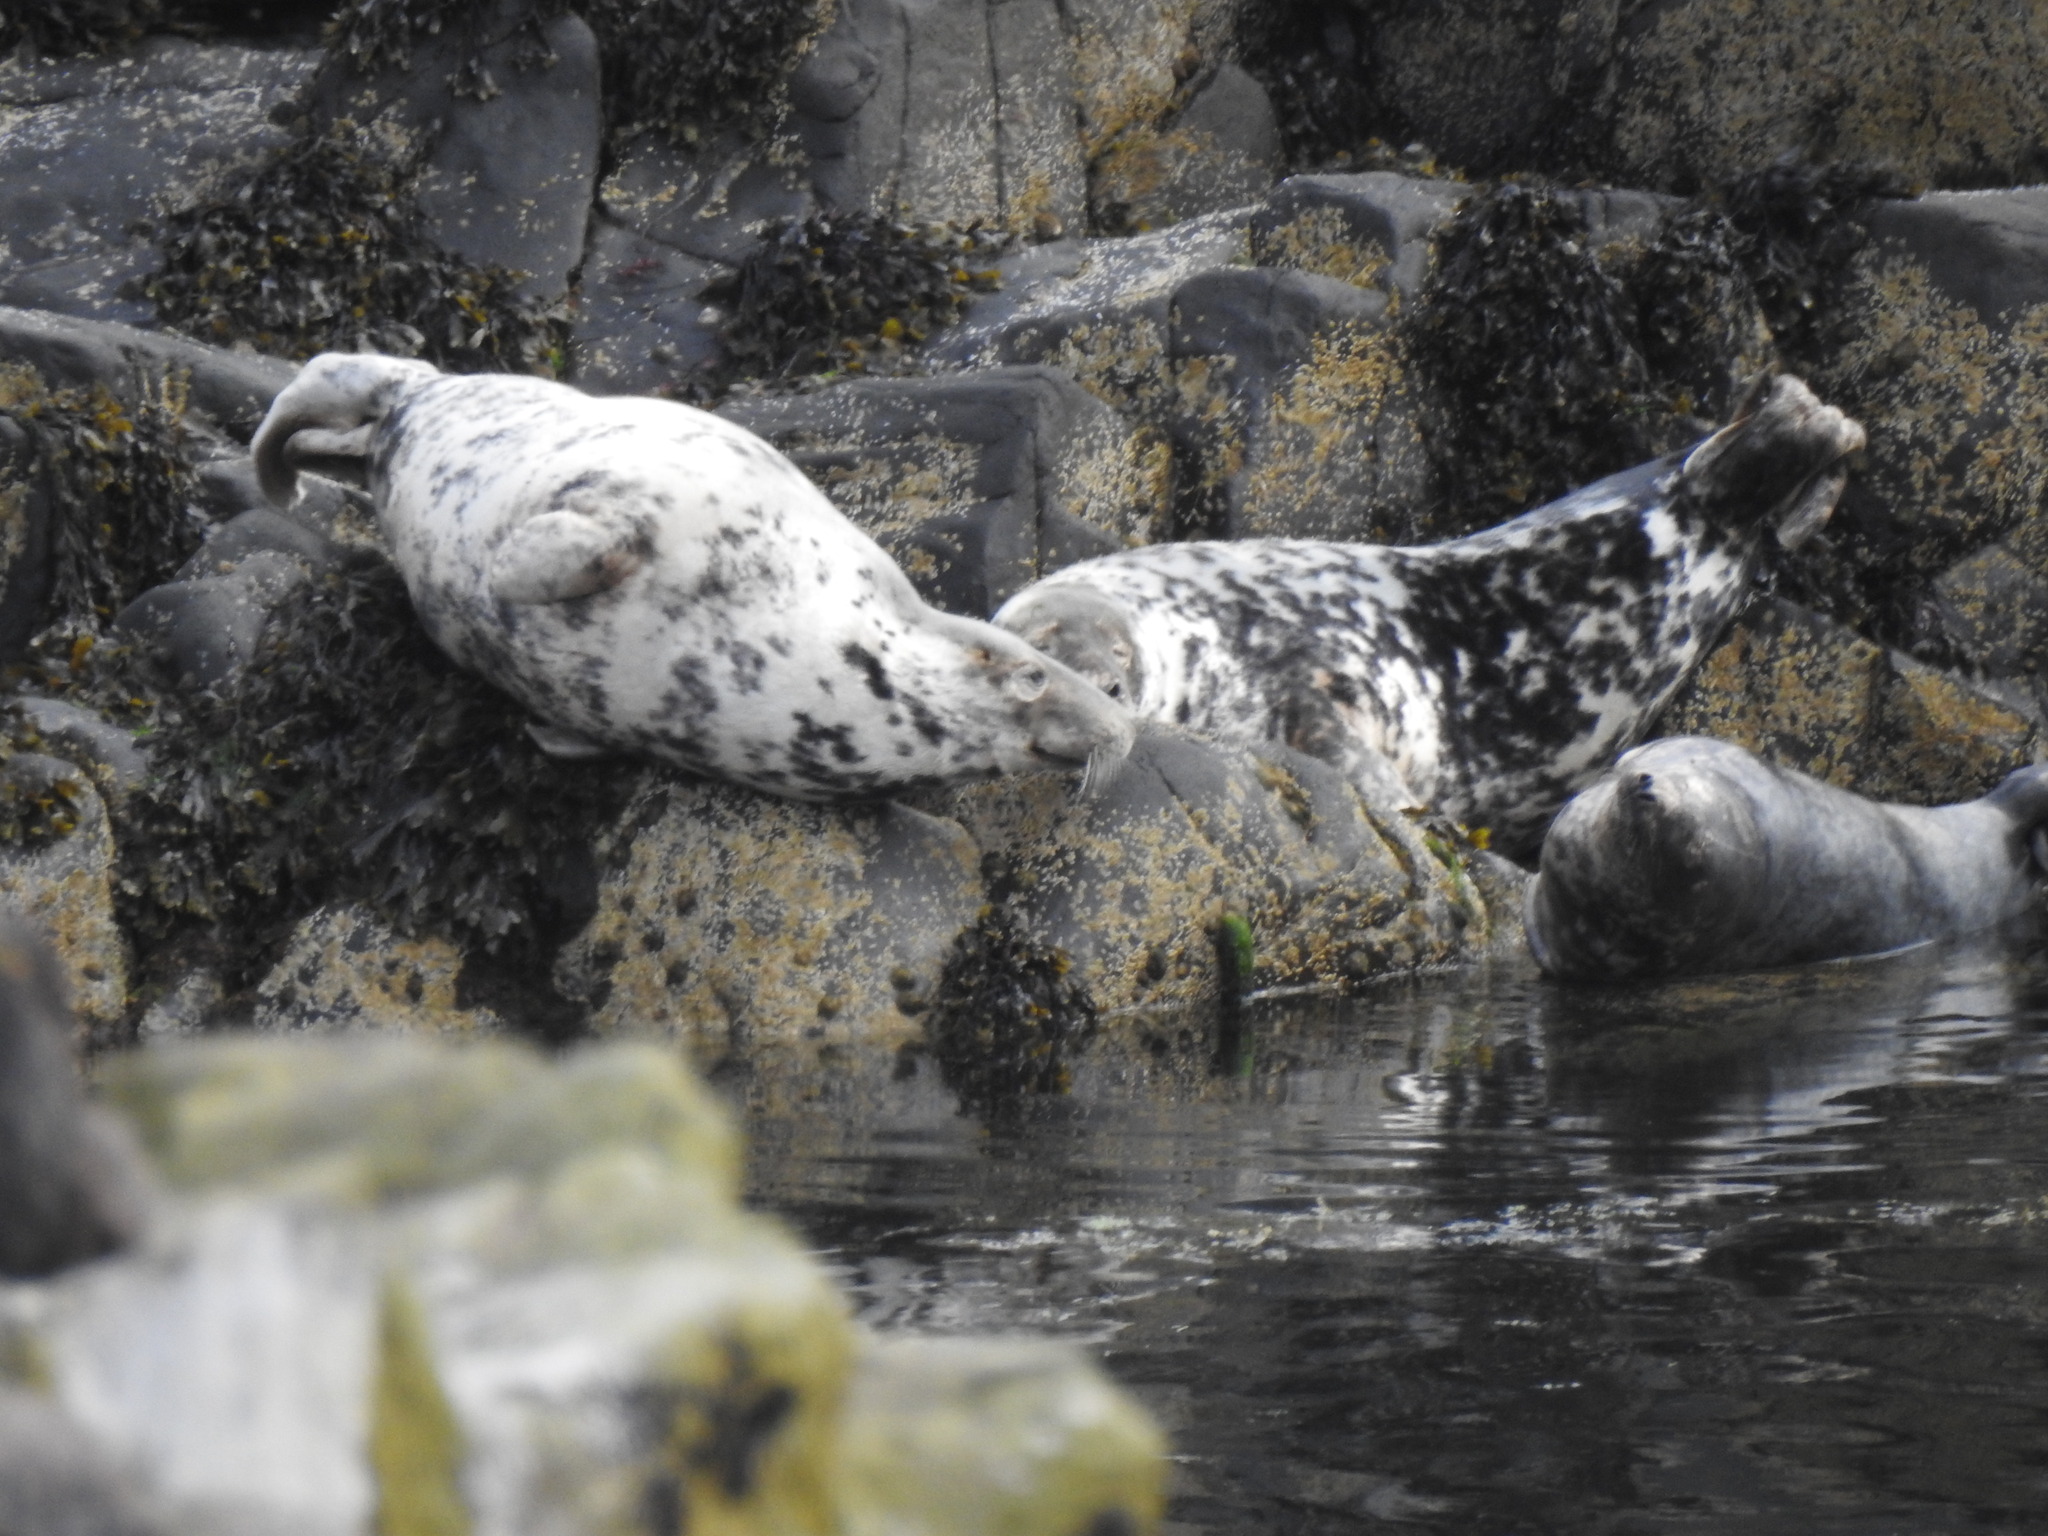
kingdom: Animalia
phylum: Chordata
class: Mammalia
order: Carnivora
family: Phocidae
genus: Halichoerus
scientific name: Halichoerus grypus
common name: Grey seal
